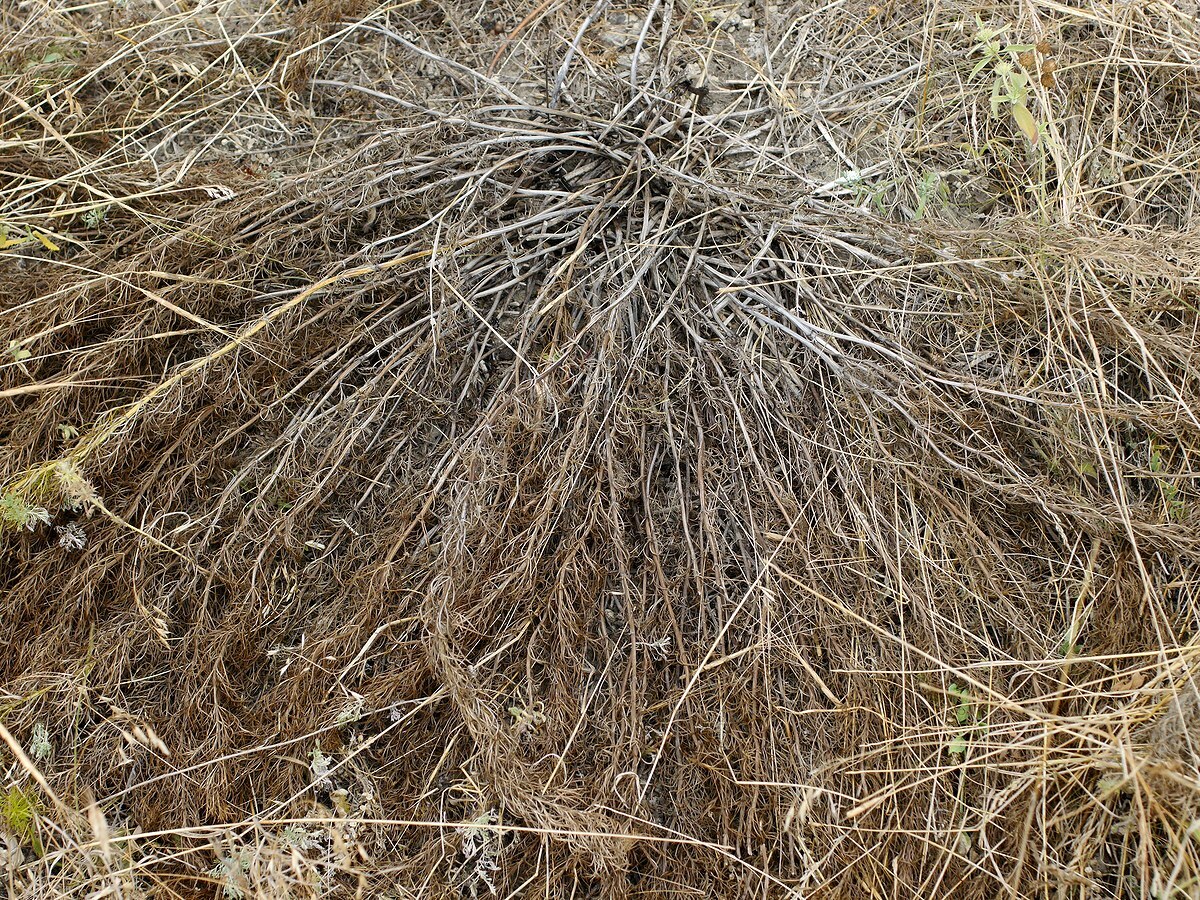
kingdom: Plantae
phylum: Tracheophyta
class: Magnoliopsida
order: Ranunculales
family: Ranunculaceae
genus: Adonis
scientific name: Adonis vernalis
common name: Yellow pheasants-eye
